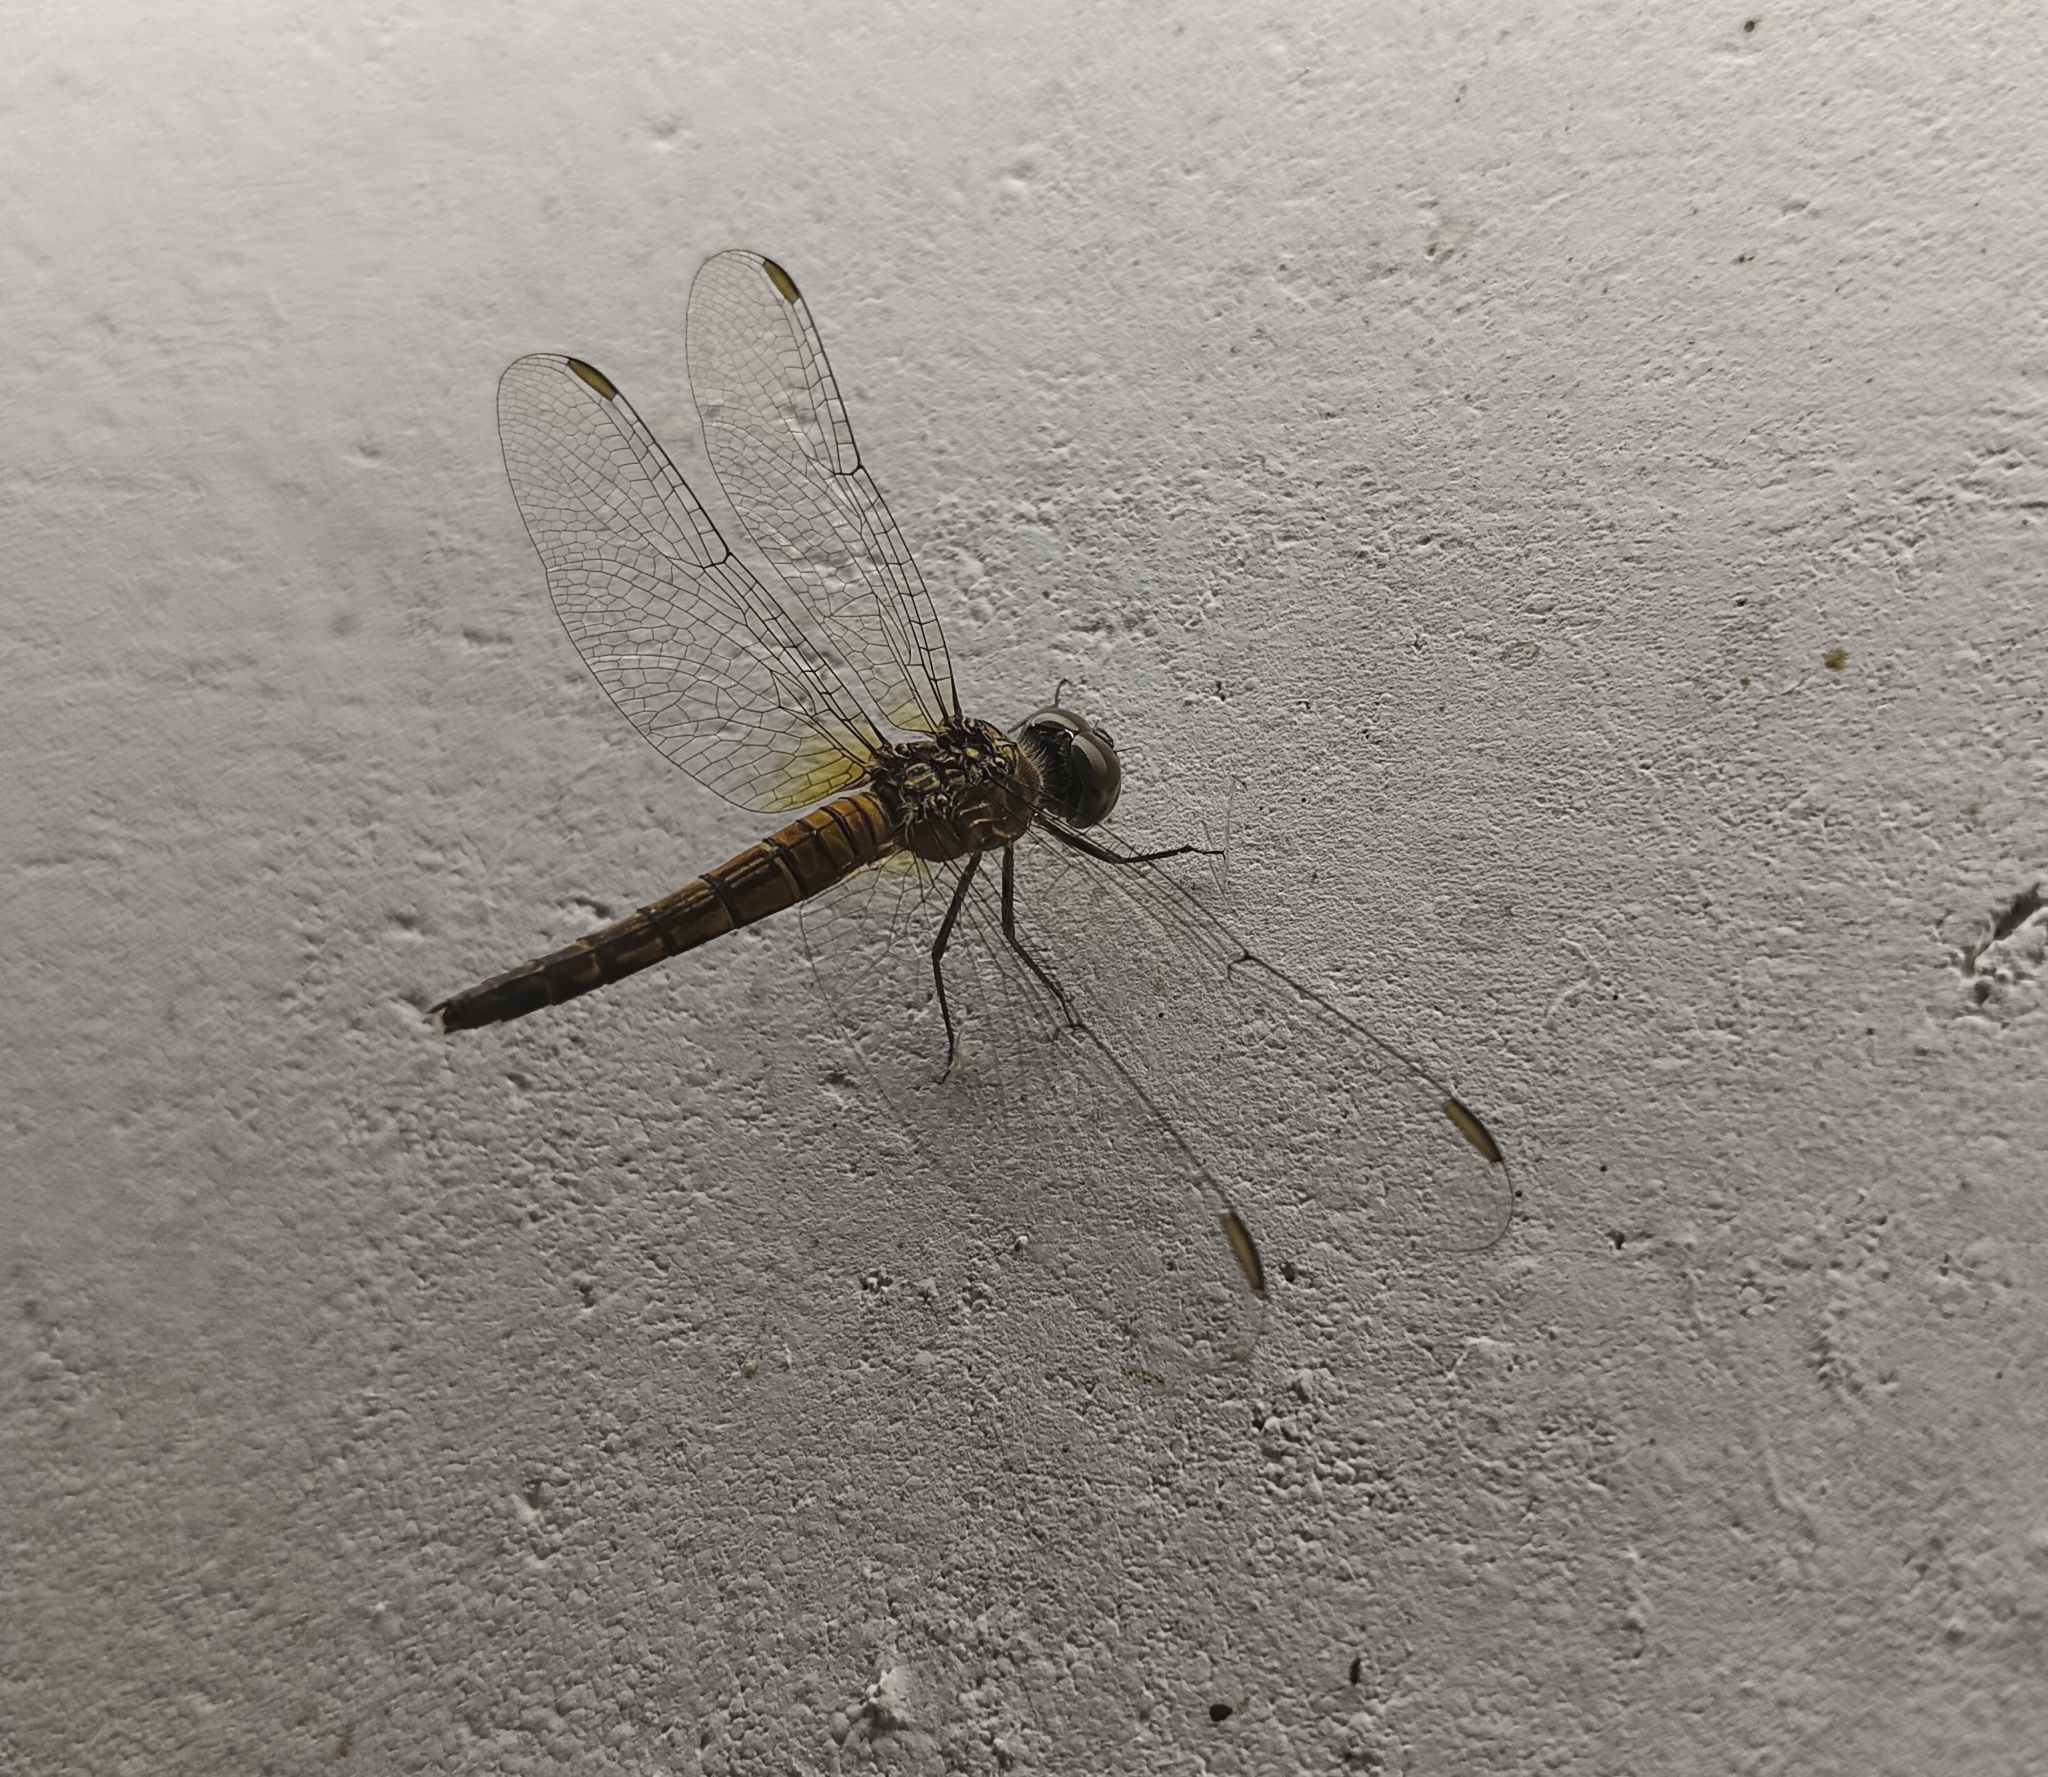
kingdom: Animalia
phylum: Arthropoda
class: Insecta
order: Odonata
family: Libellulidae
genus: Brachydiplax
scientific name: Brachydiplax chalybea
